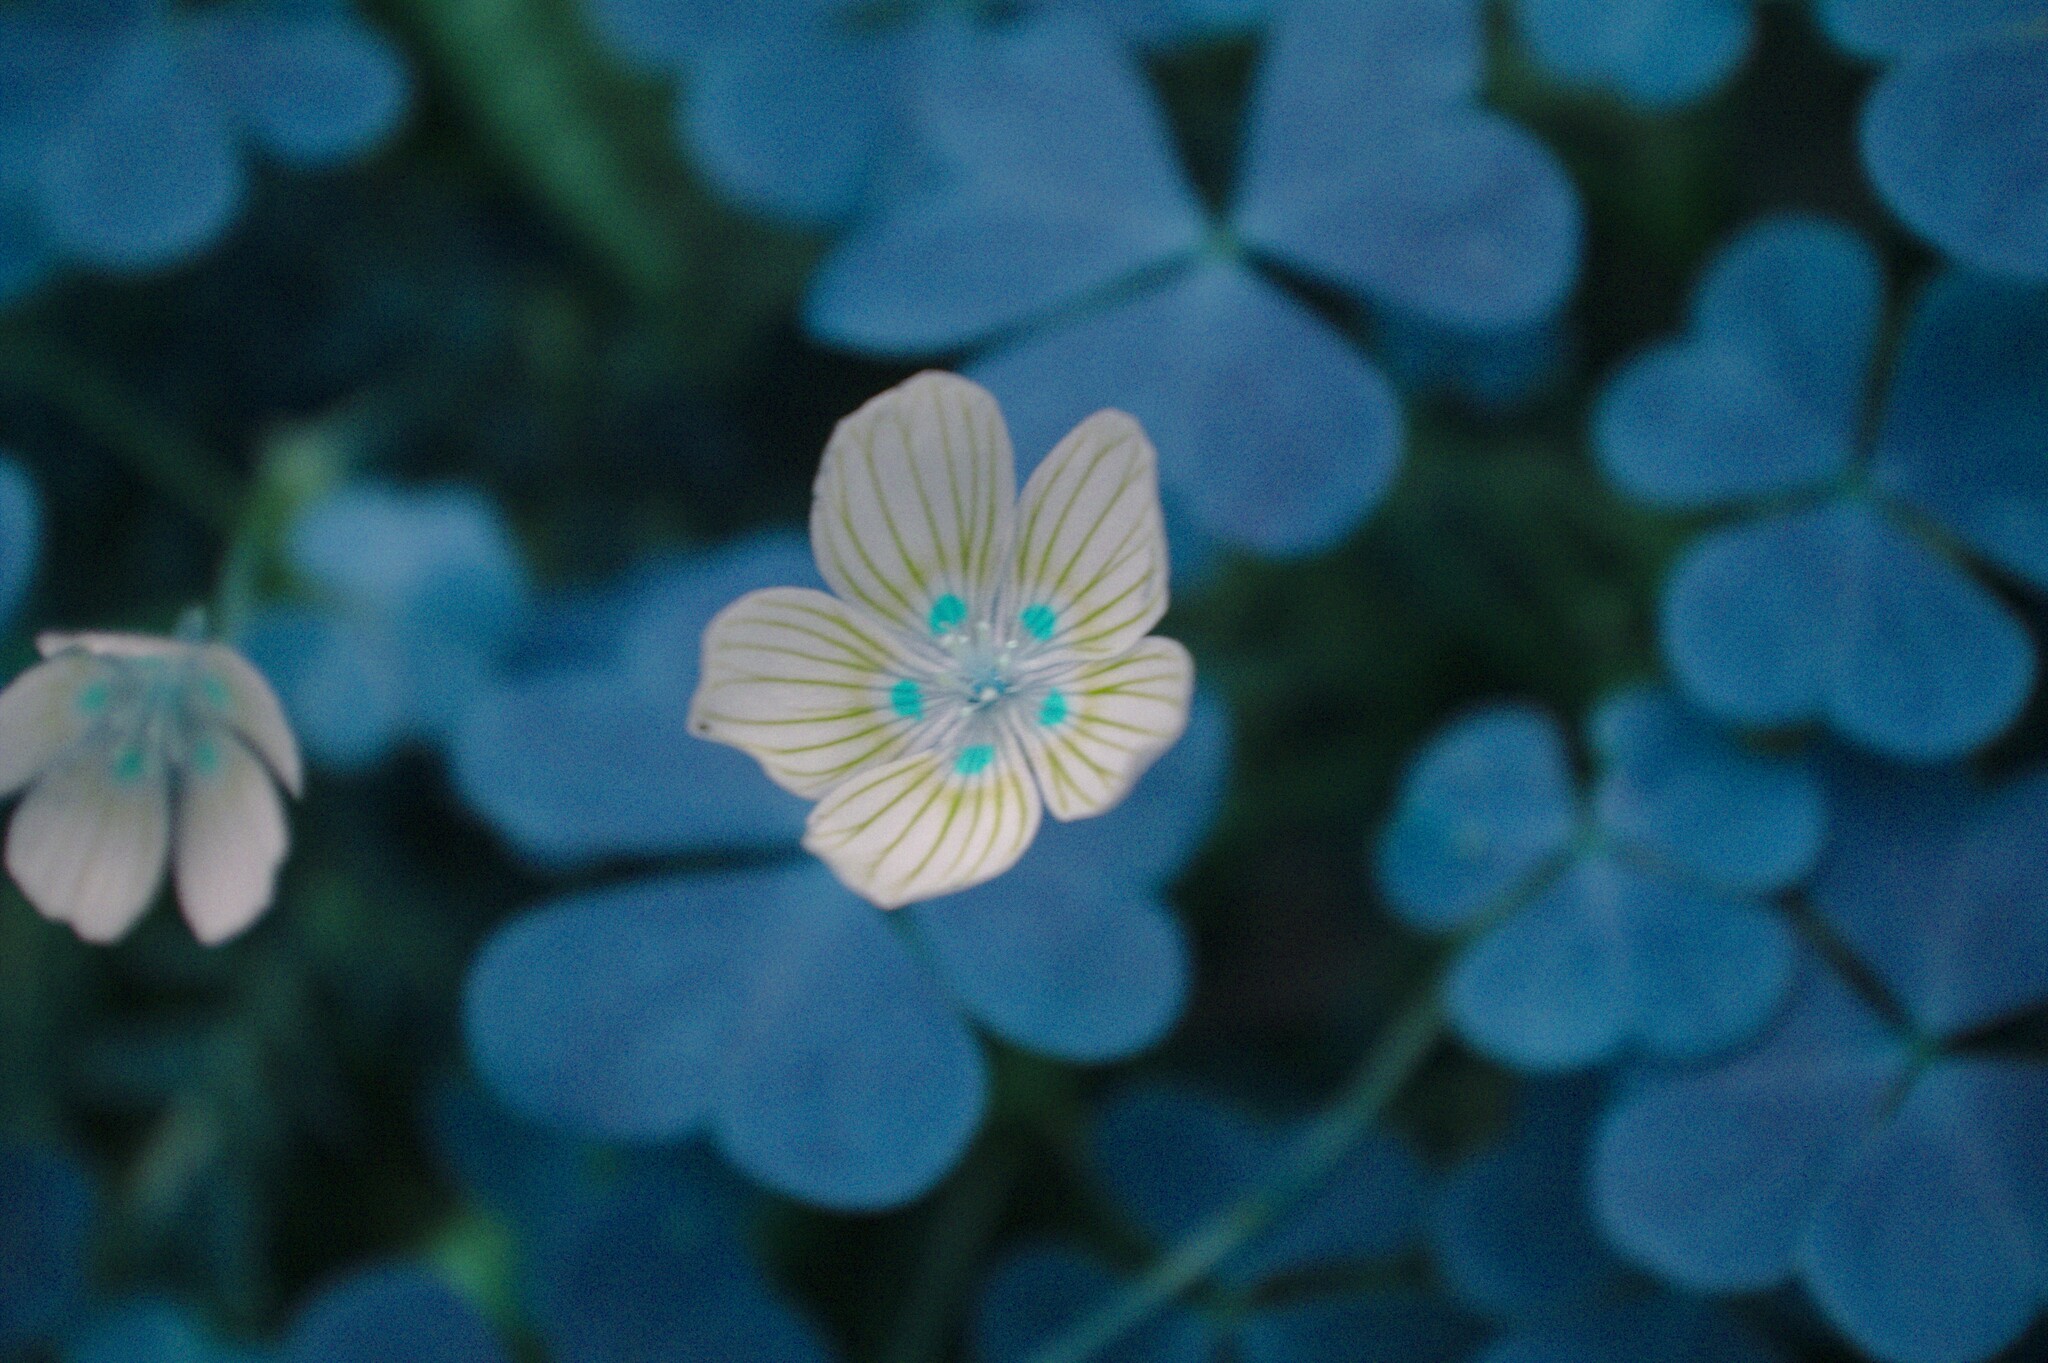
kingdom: Plantae
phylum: Tracheophyta
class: Magnoliopsida
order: Oxalidales
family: Oxalidaceae
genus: Oxalis
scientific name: Oxalis montana
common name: American wood-sorrel
